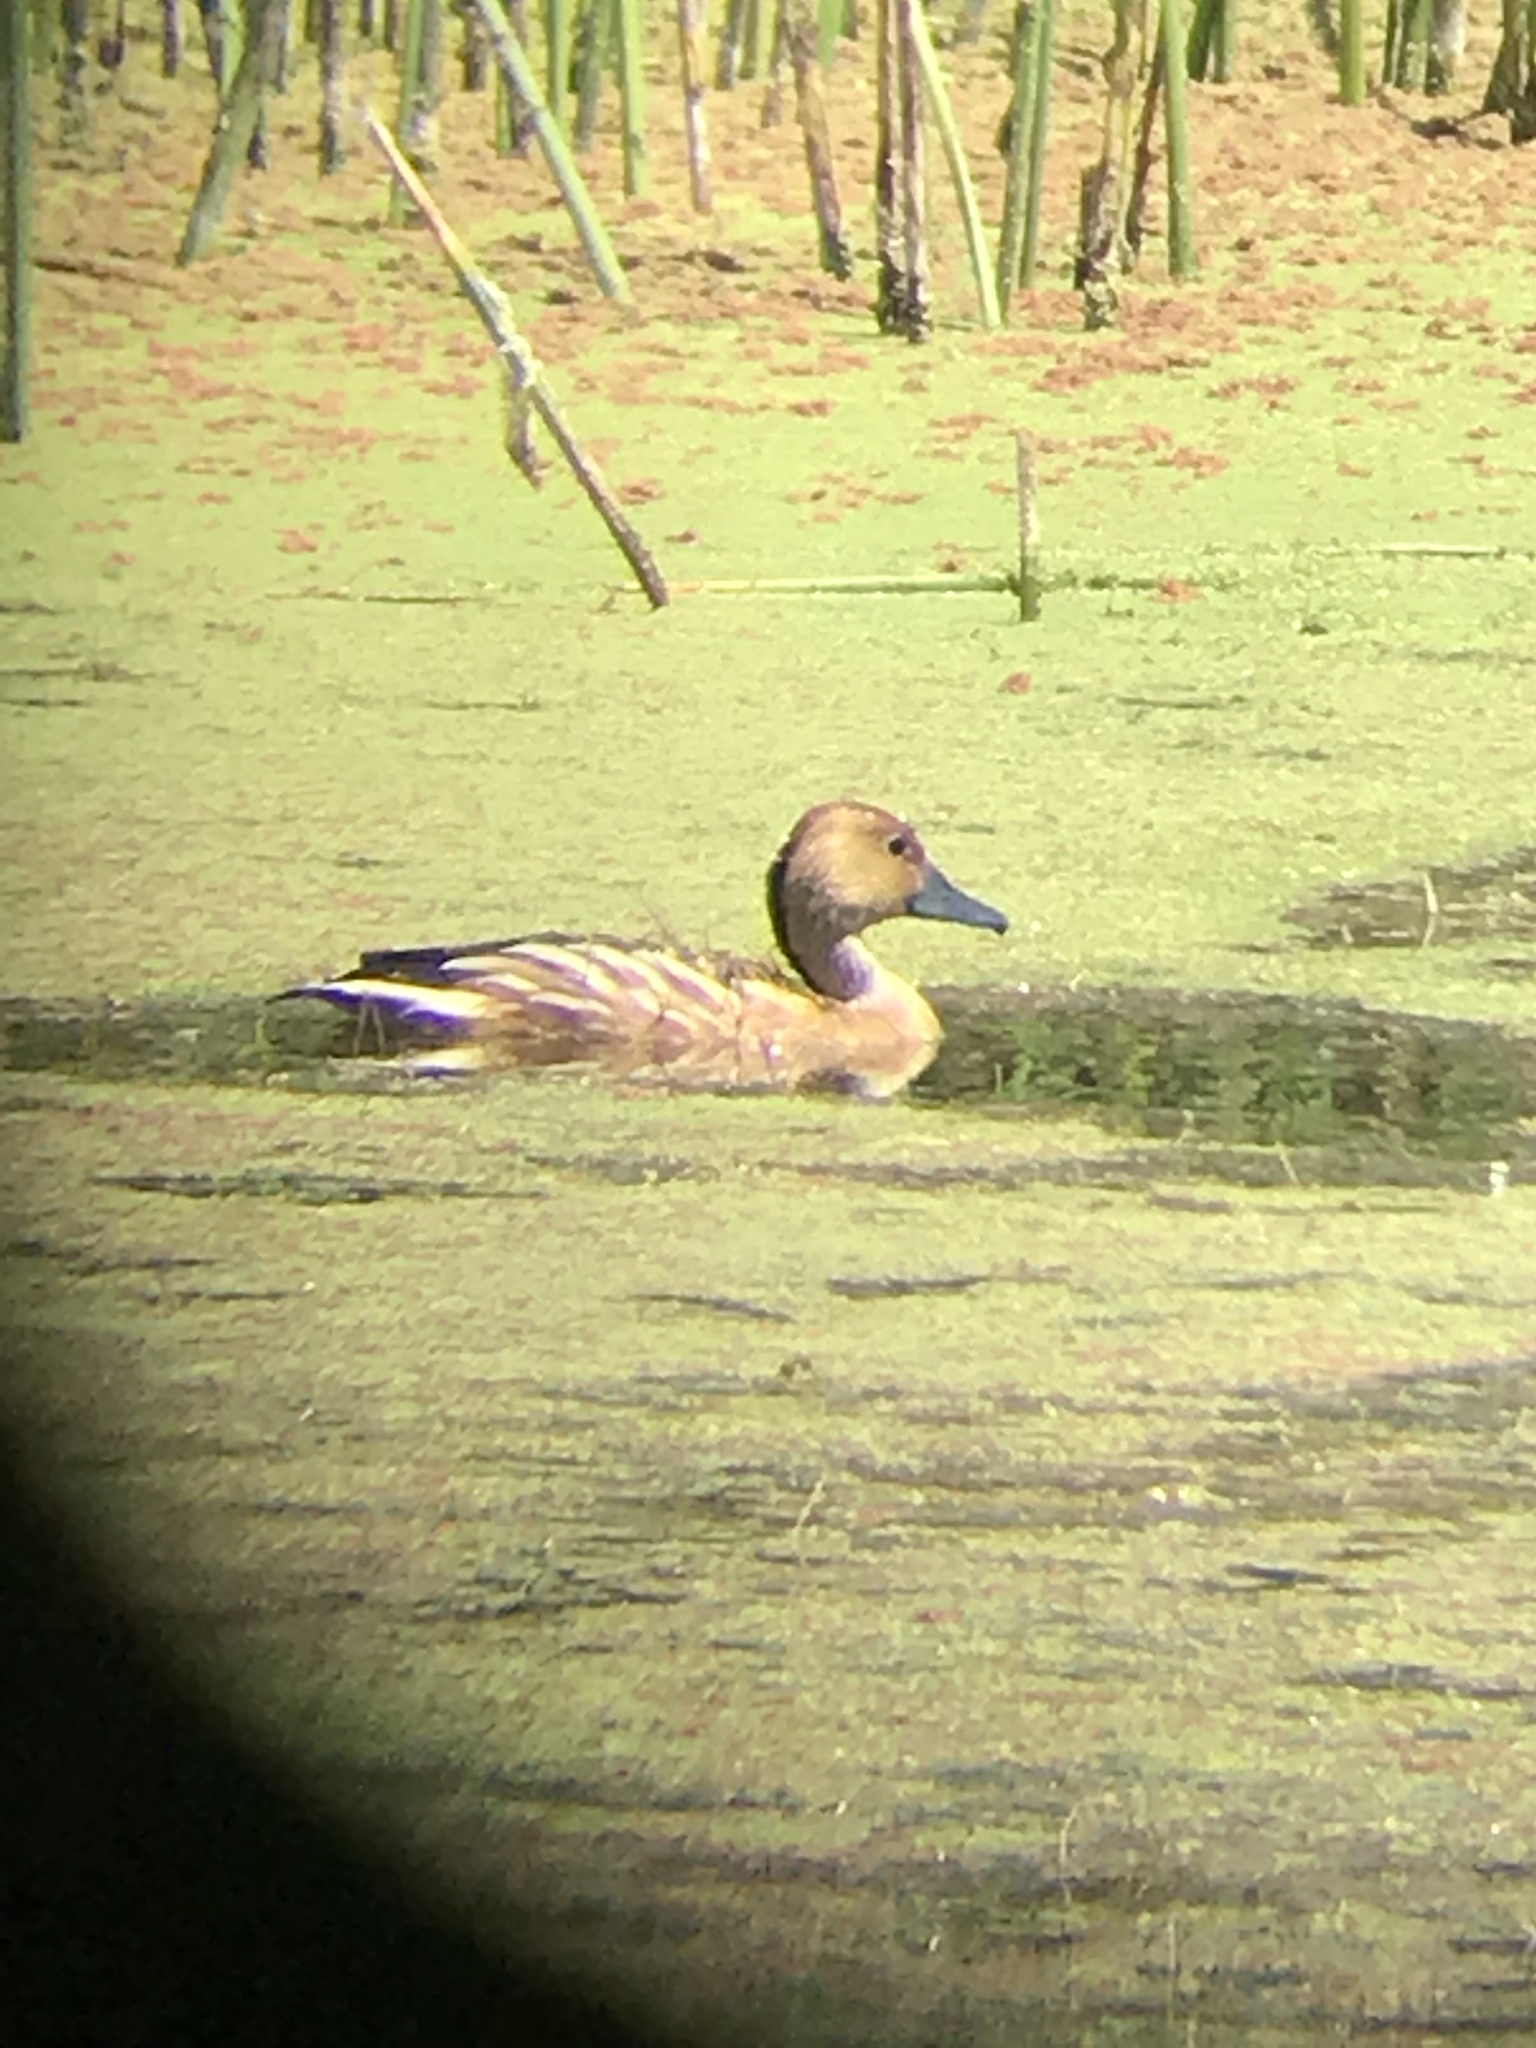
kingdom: Animalia
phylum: Chordata
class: Aves
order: Anseriformes
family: Anatidae
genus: Dendrocygna
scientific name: Dendrocygna bicolor
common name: Fulvous whistling duck
